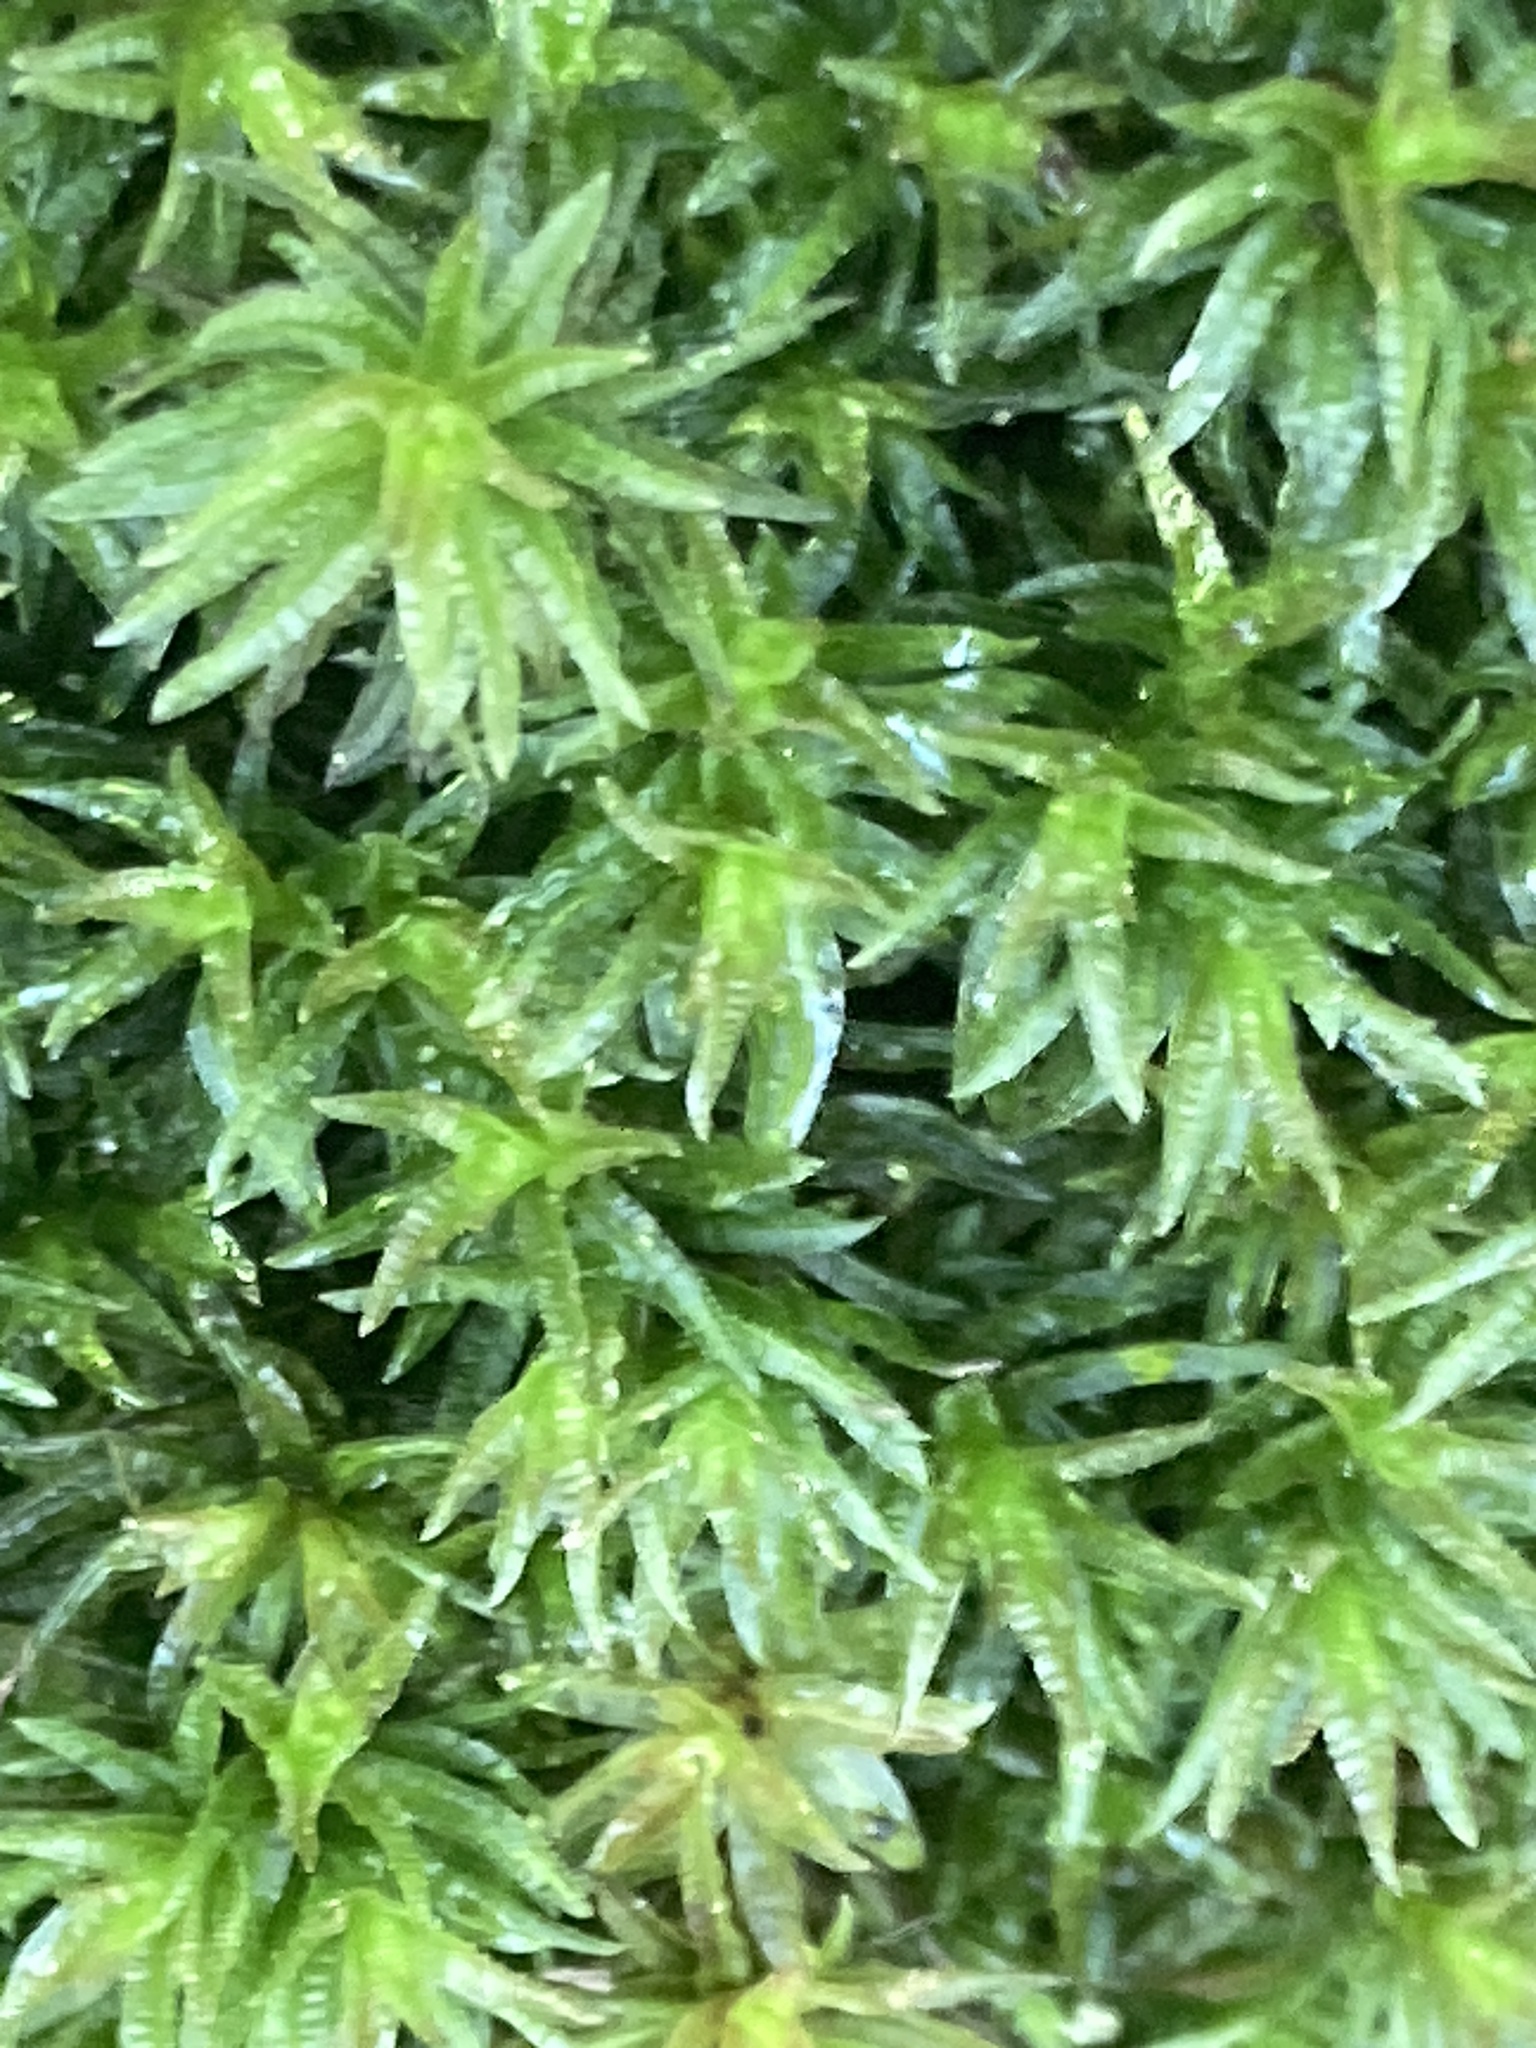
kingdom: Plantae
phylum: Bryophyta
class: Polytrichopsida
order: Polytrichales
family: Polytrichaceae
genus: Atrichum
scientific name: Atrichum undulatum
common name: Common smoothcap
